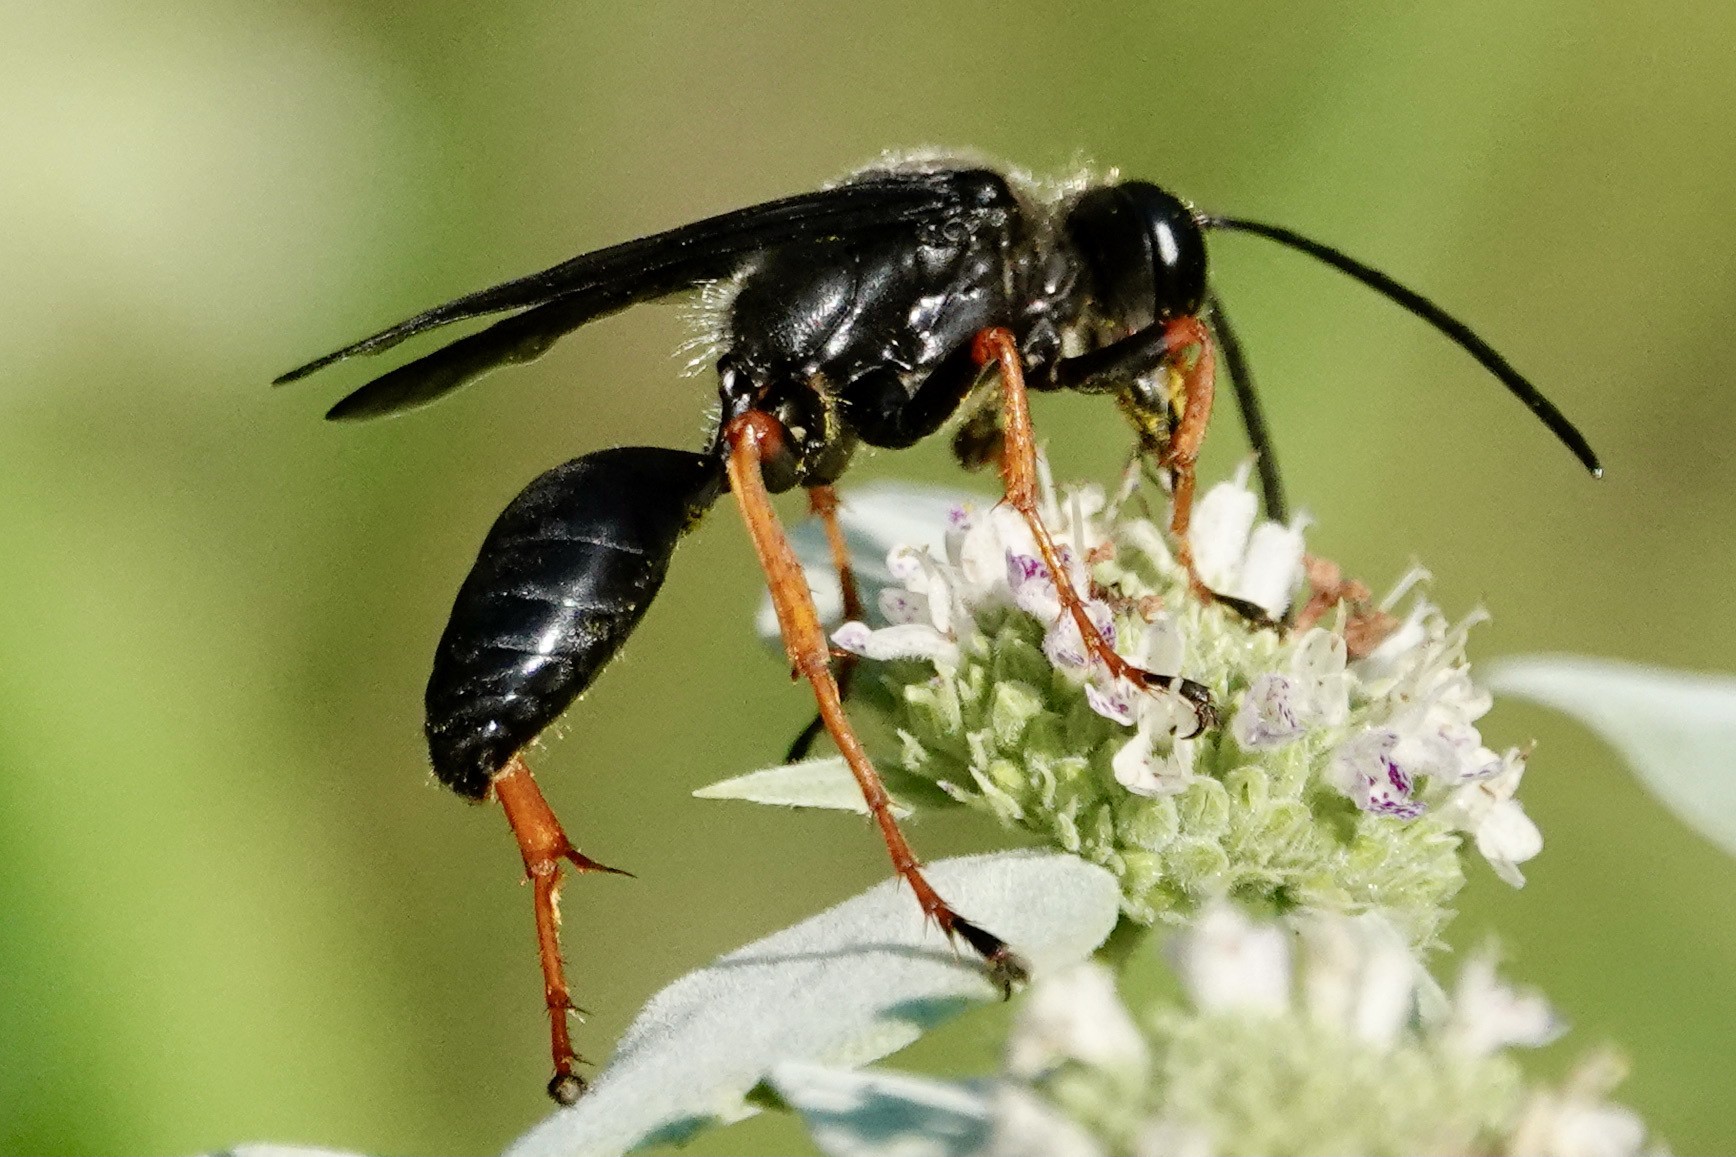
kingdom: Animalia
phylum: Arthropoda
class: Insecta
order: Hymenoptera
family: Sphecidae
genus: Sphex
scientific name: Sphex nudus
